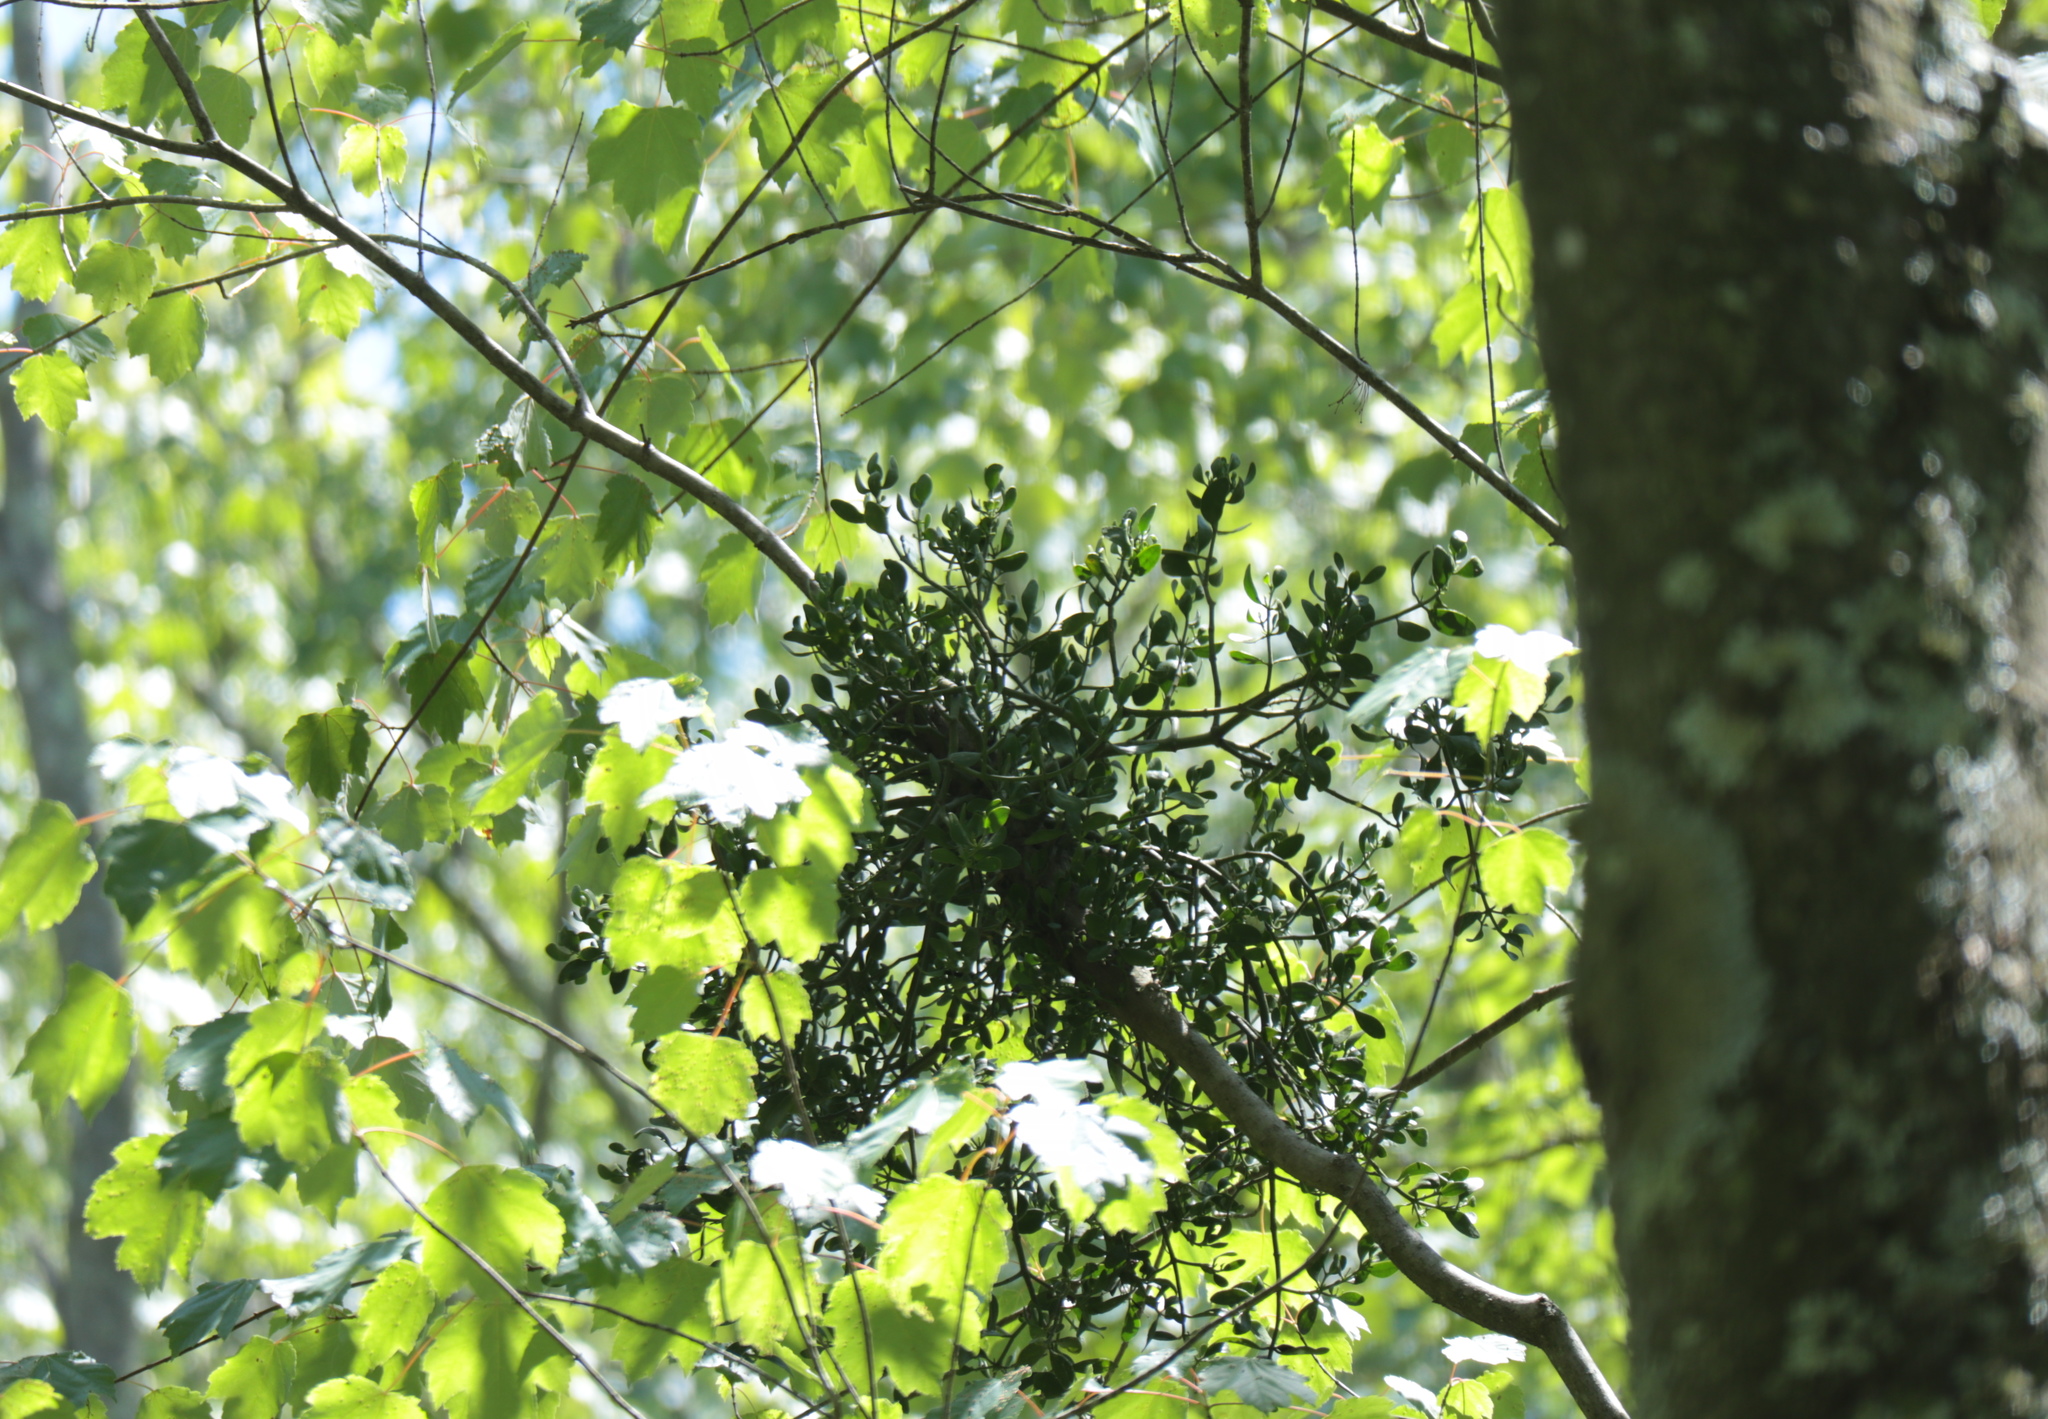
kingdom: Plantae
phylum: Tracheophyta
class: Magnoliopsida
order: Santalales
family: Viscaceae
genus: Phoradendron
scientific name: Phoradendron leucarpum
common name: Pacific mistletoe
